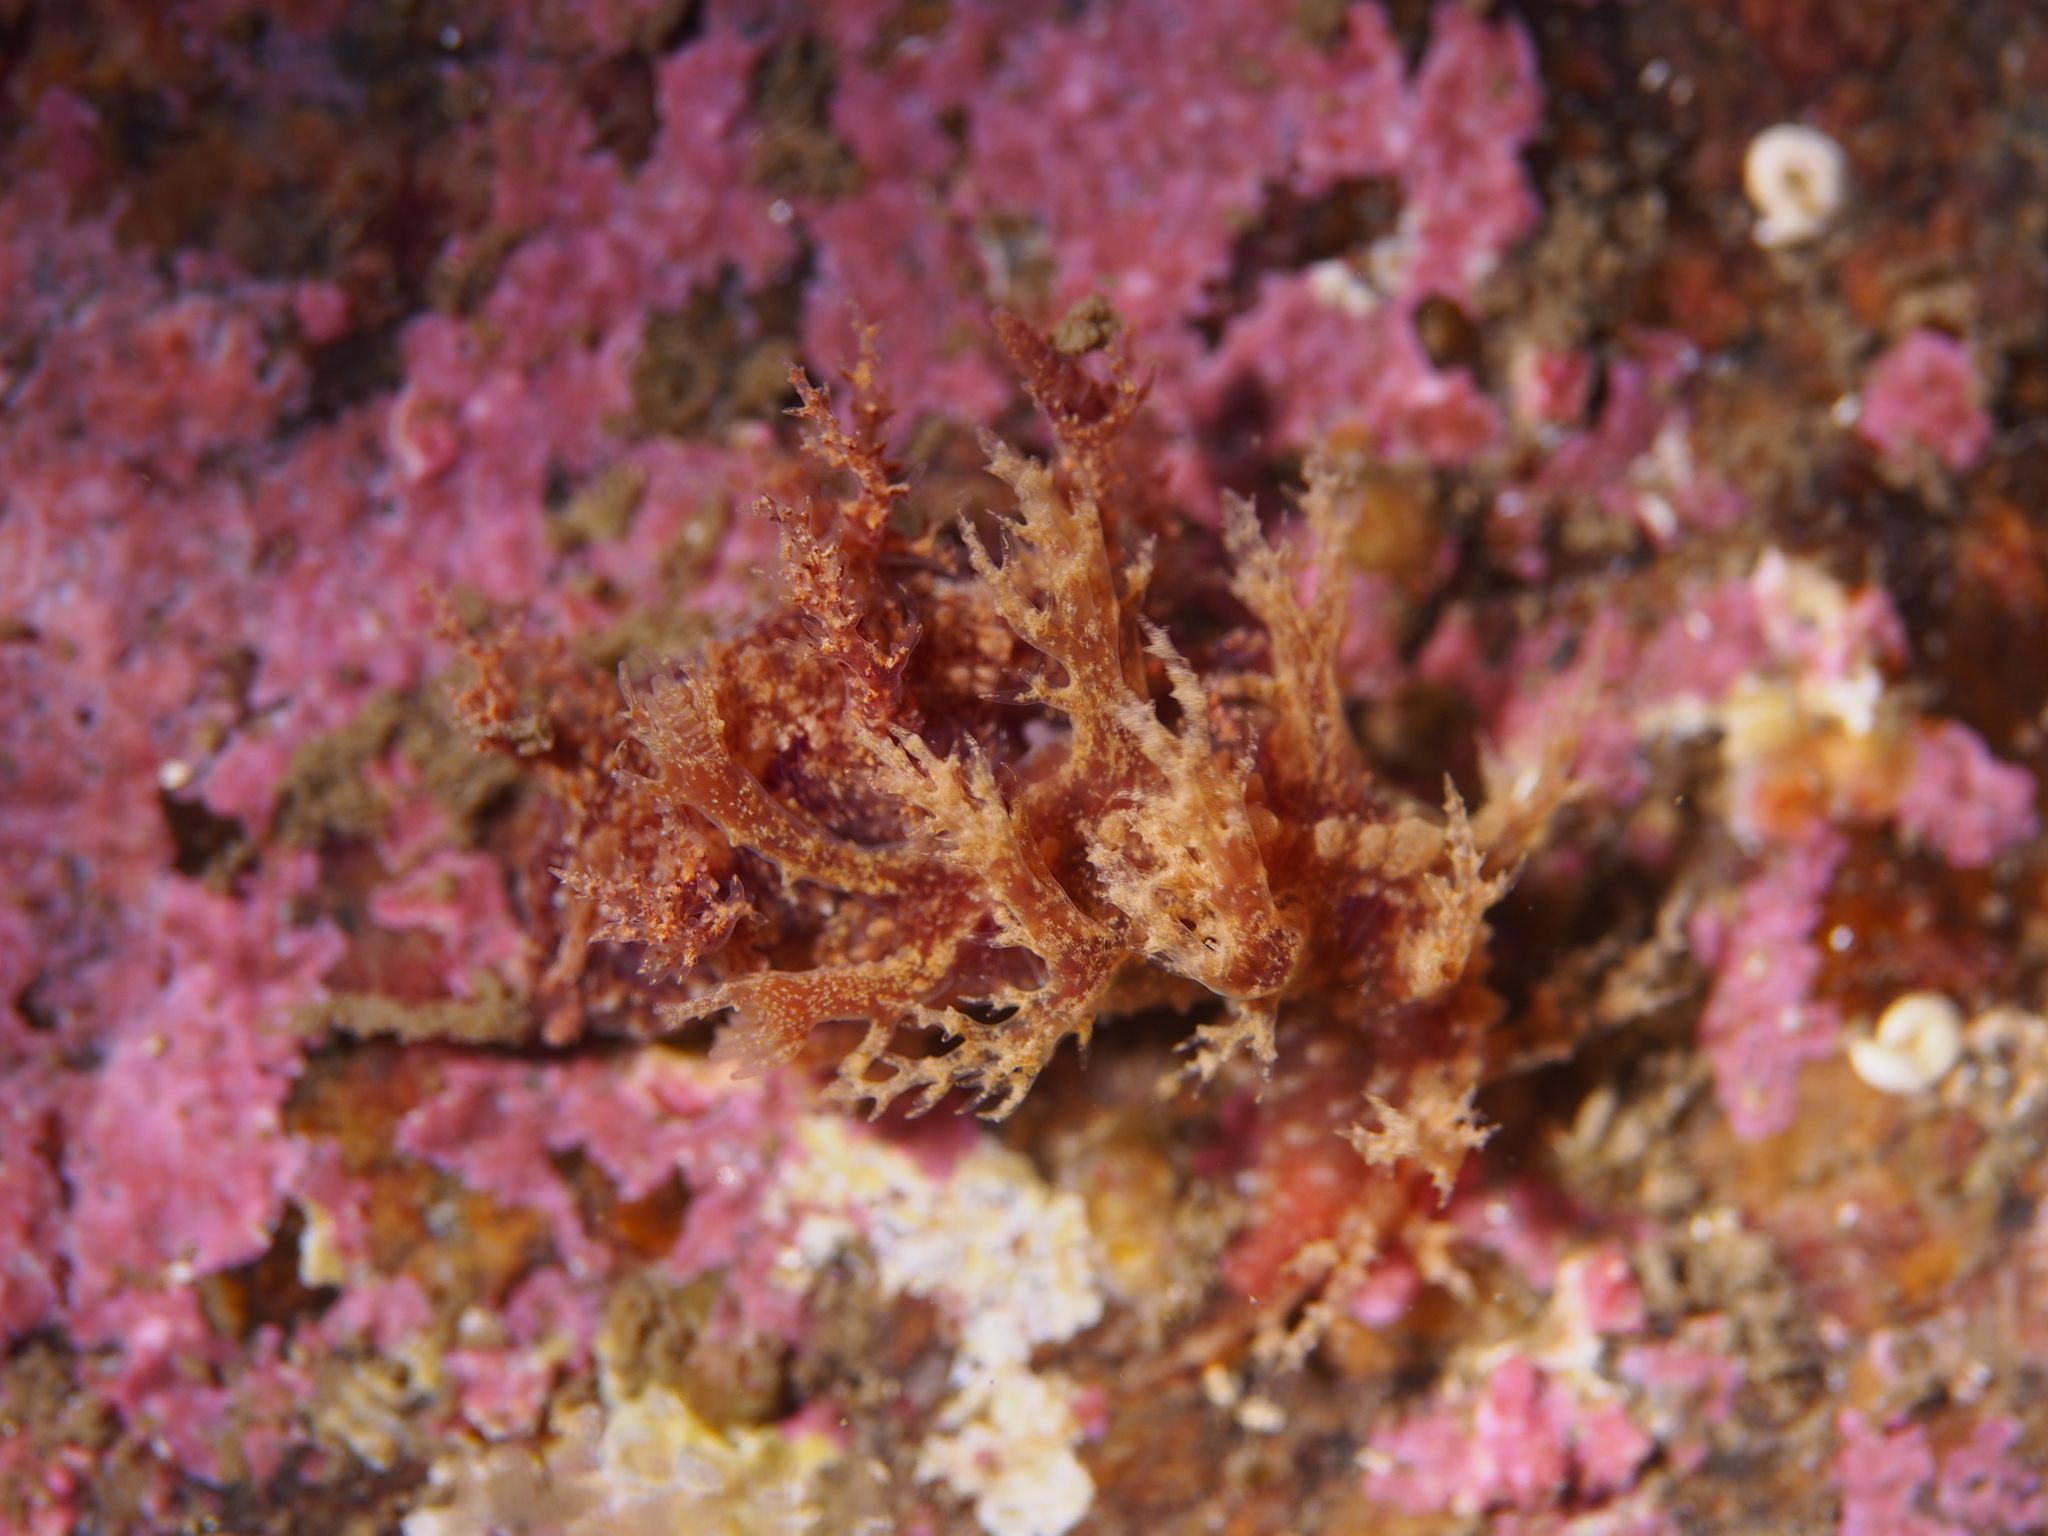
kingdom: Animalia
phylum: Mollusca
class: Gastropoda
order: Nudibranchia
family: Dendronotidae
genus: Dendronotus
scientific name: Dendronotus frondosus
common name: Bushy-backed nudibranch
